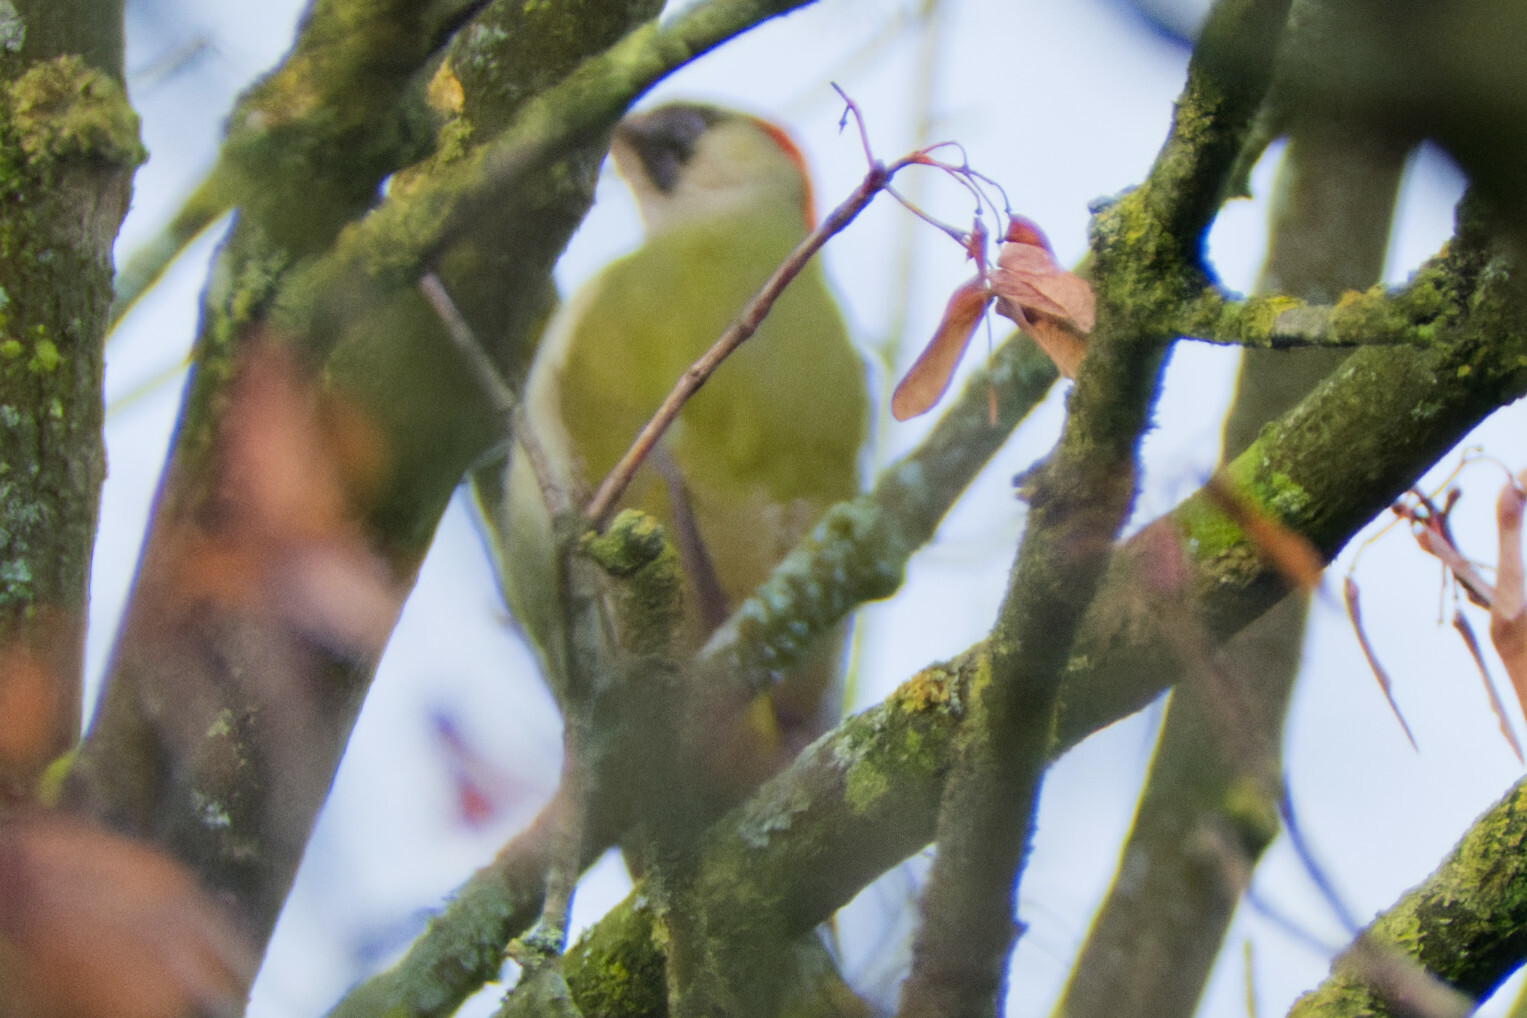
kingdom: Animalia
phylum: Chordata
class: Aves
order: Piciformes
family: Picidae
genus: Picus
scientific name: Picus viridis
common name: European green woodpecker
